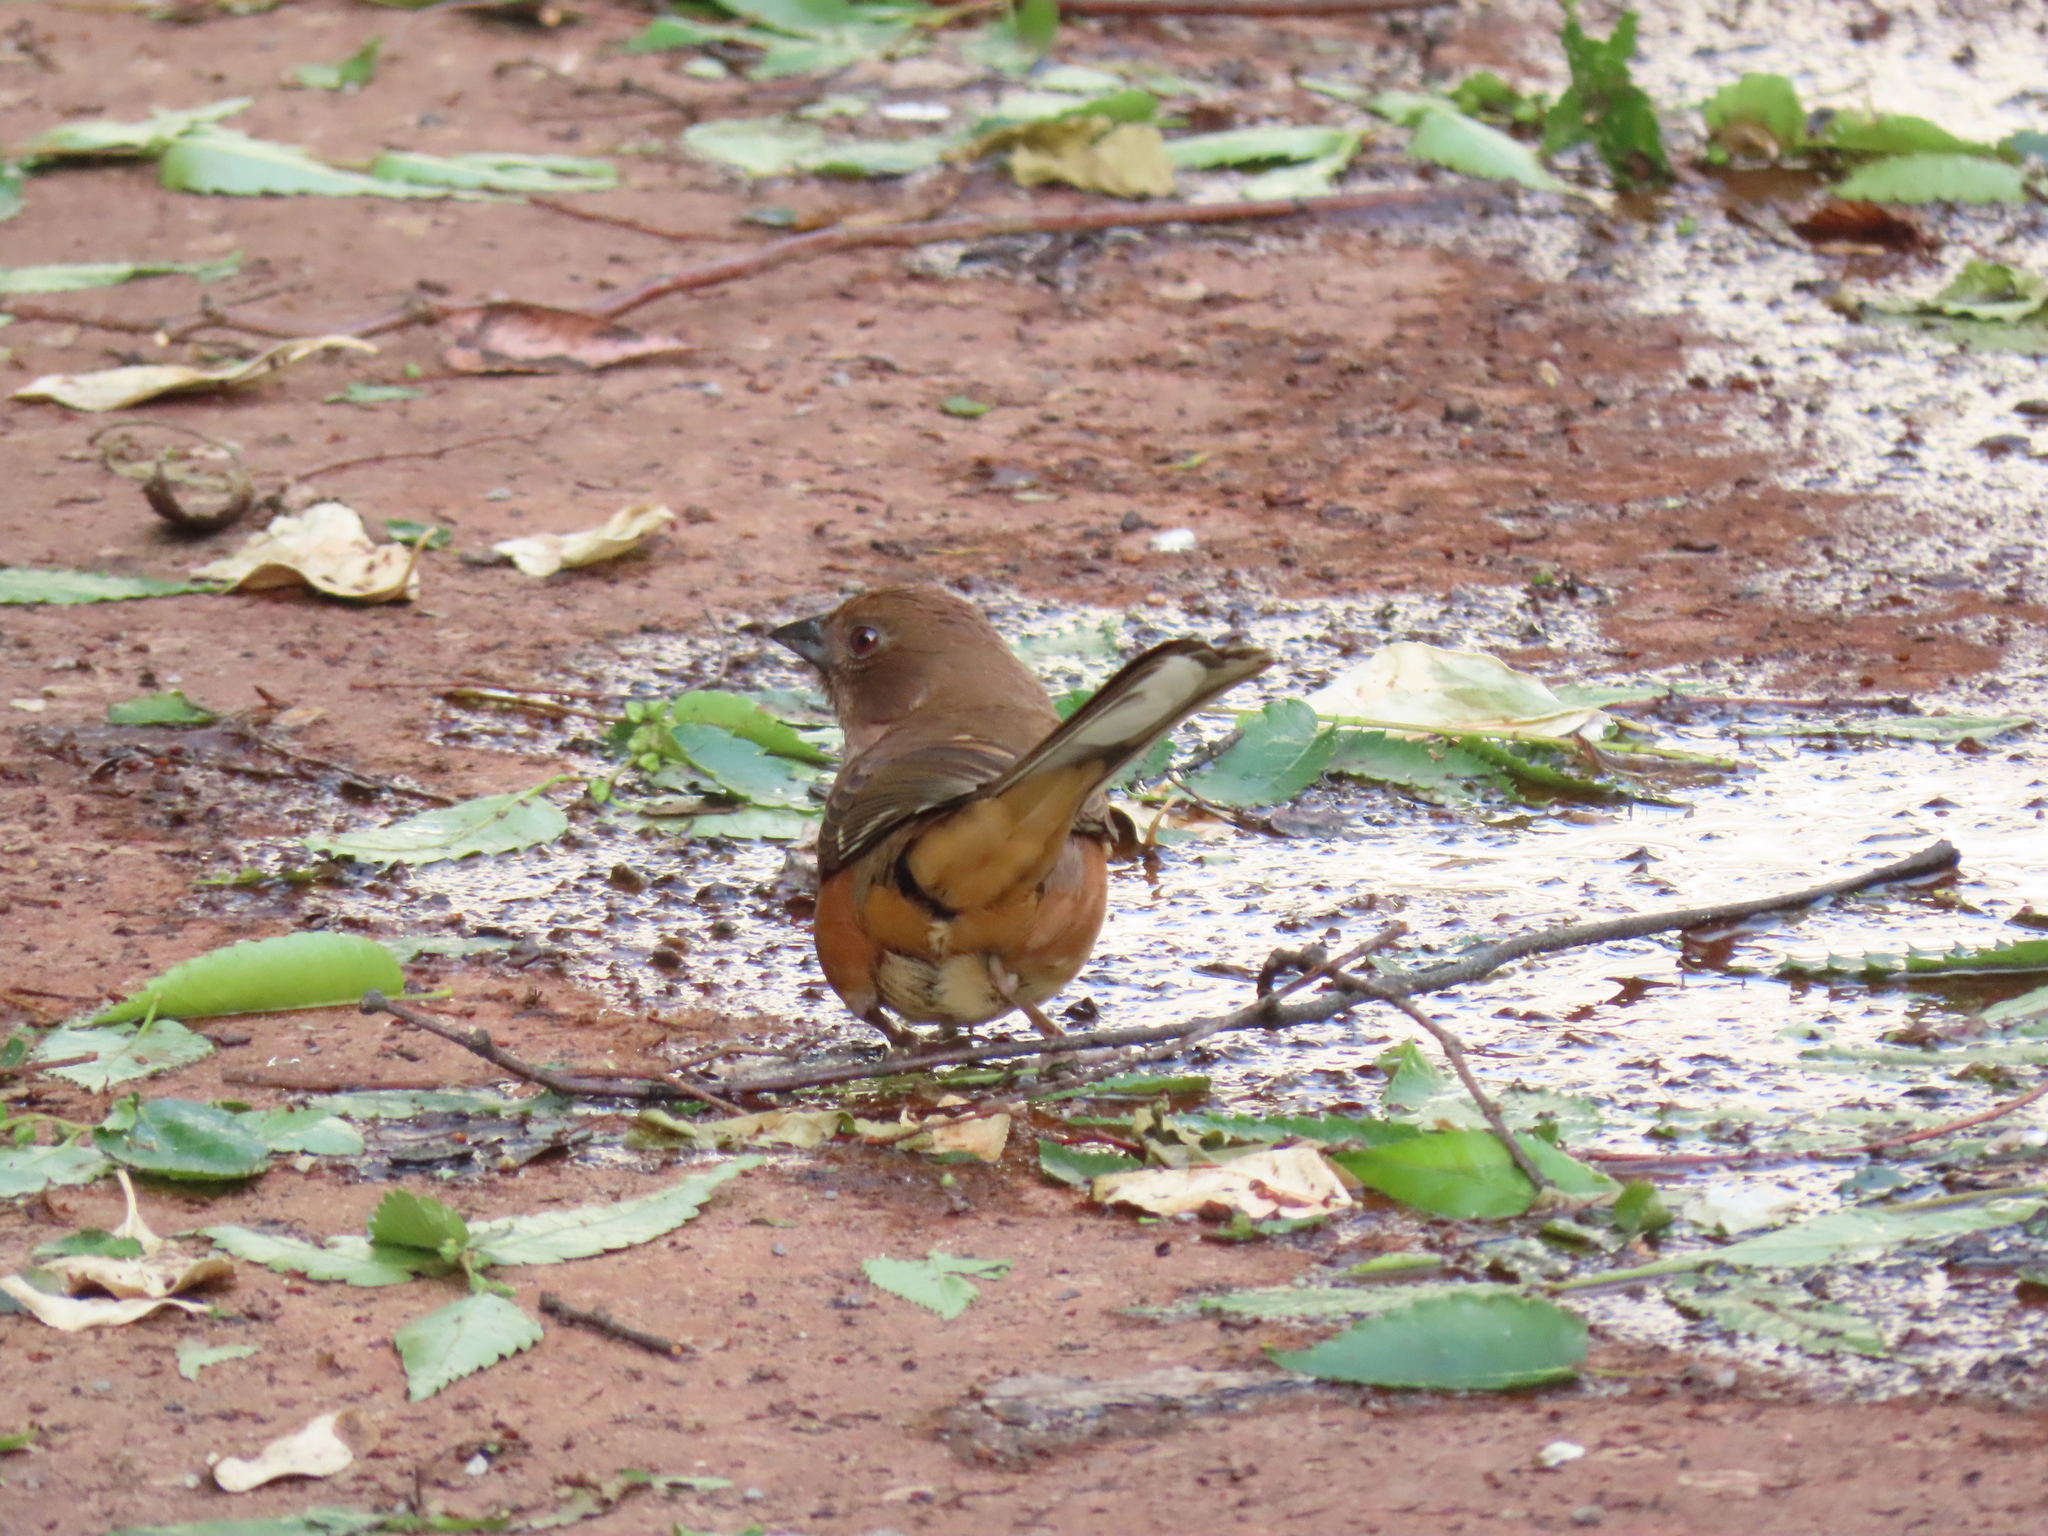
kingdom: Animalia
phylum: Chordata
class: Aves
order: Passeriformes
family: Passerellidae
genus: Pipilo
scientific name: Pipilo erythrophthalmus
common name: Eastern towhee
